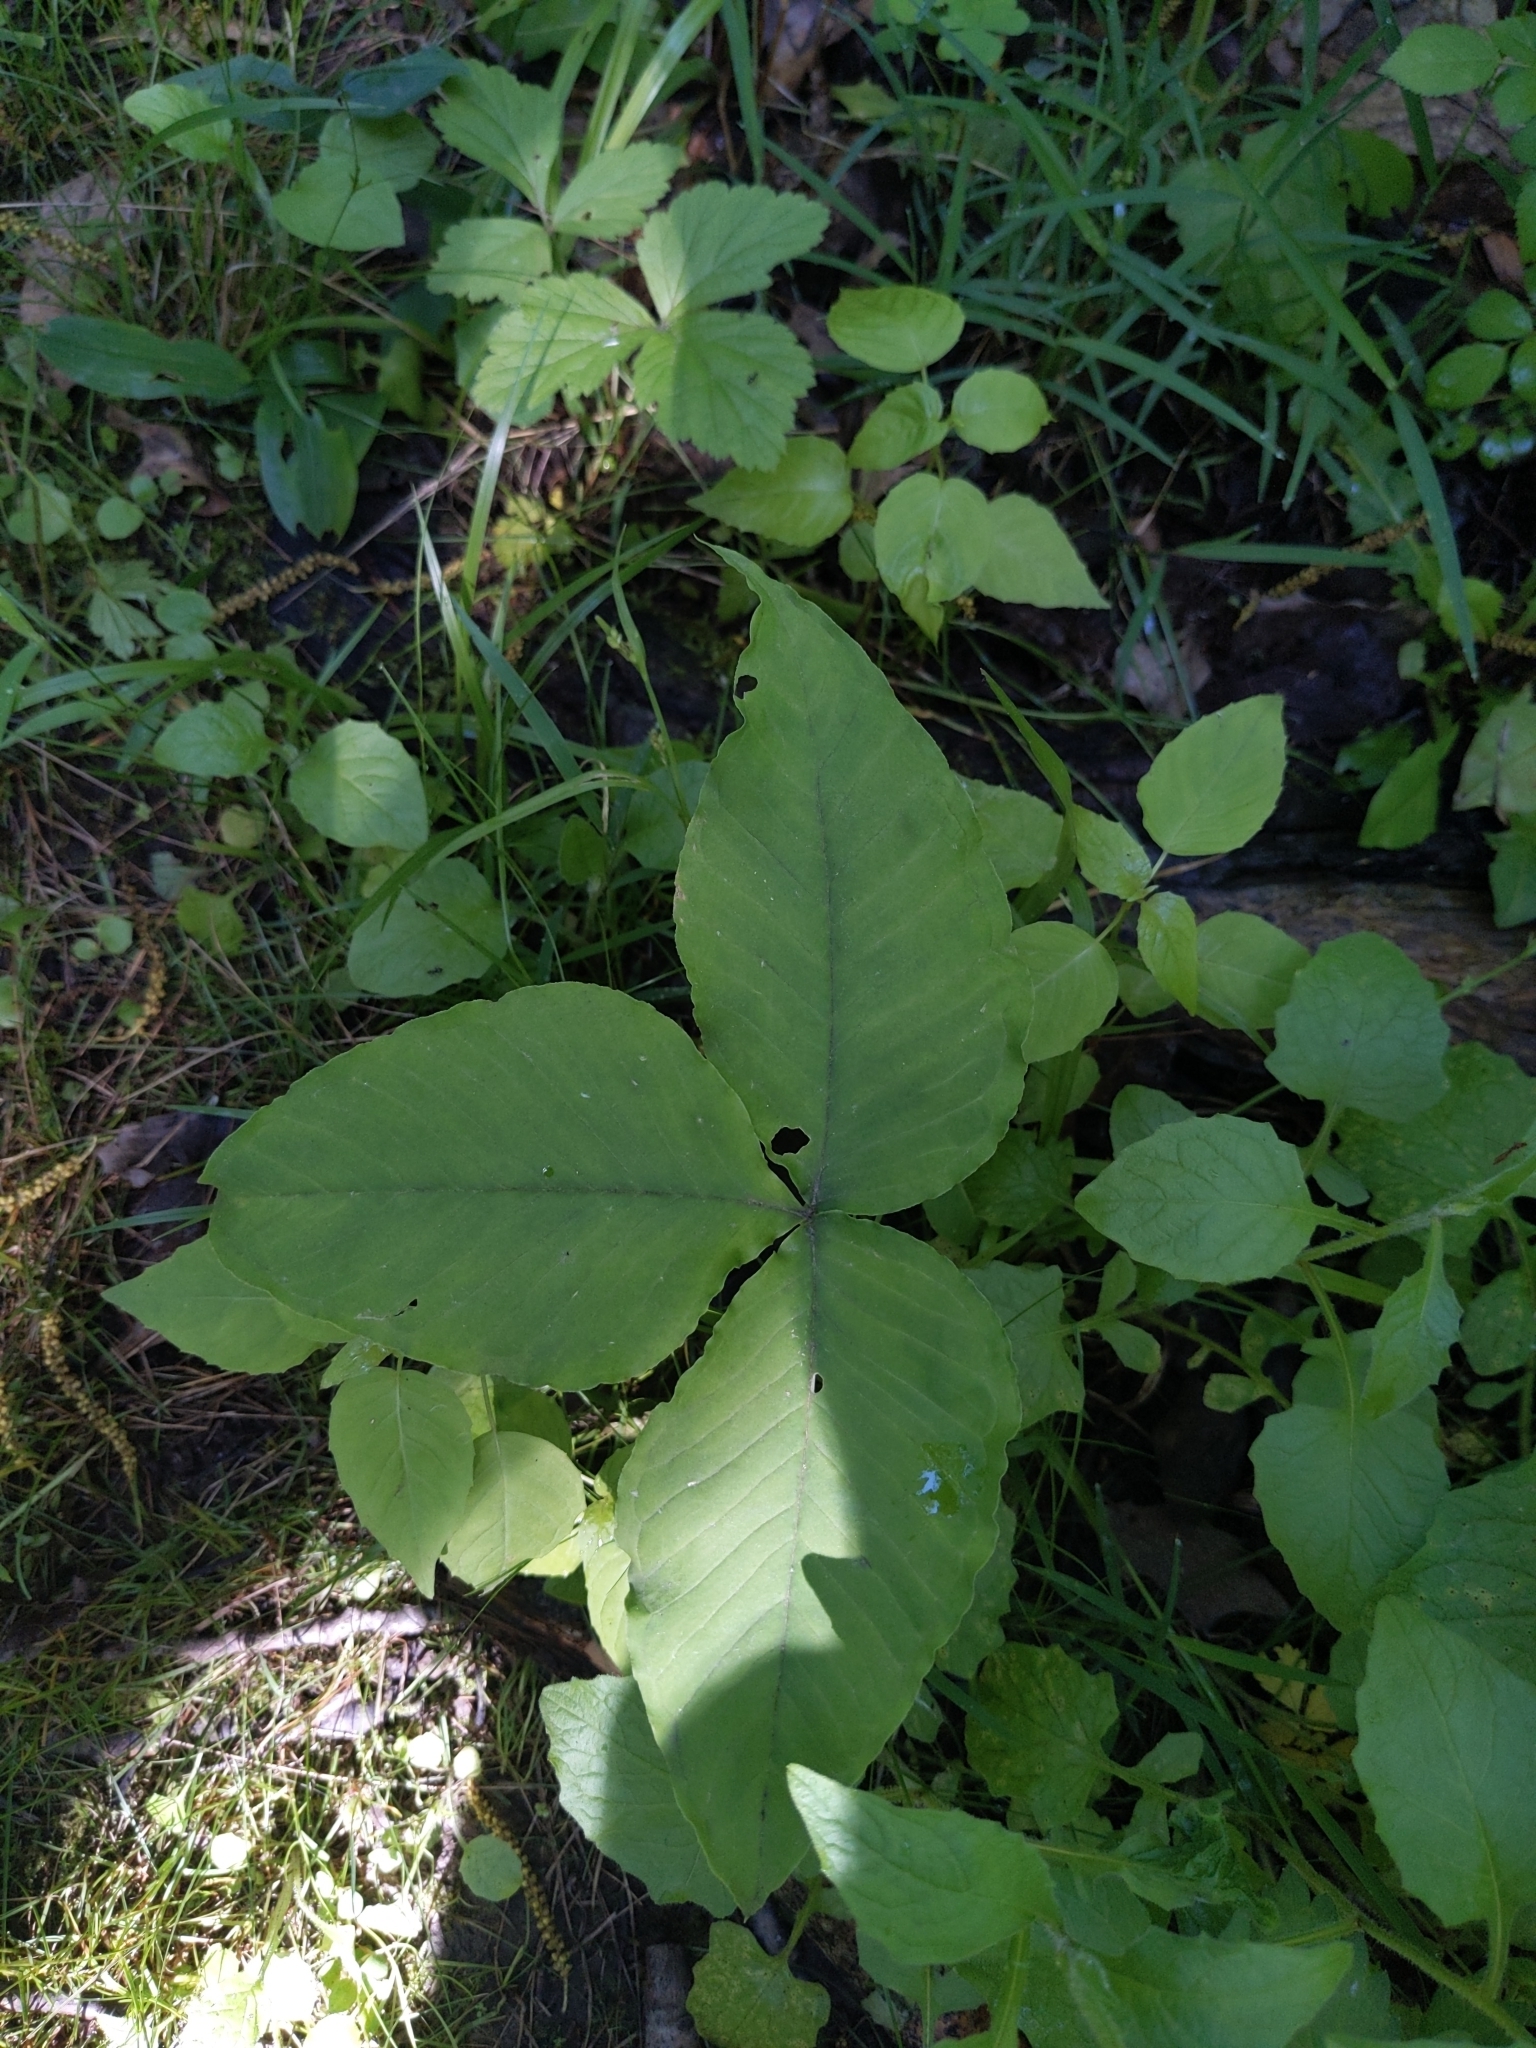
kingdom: Plantae
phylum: Tracheophyta
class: Liliopsida
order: Alismatales
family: Araceae
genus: Arisaema
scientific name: Arisaema triphyllum
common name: Jack-in-the-pulpit
